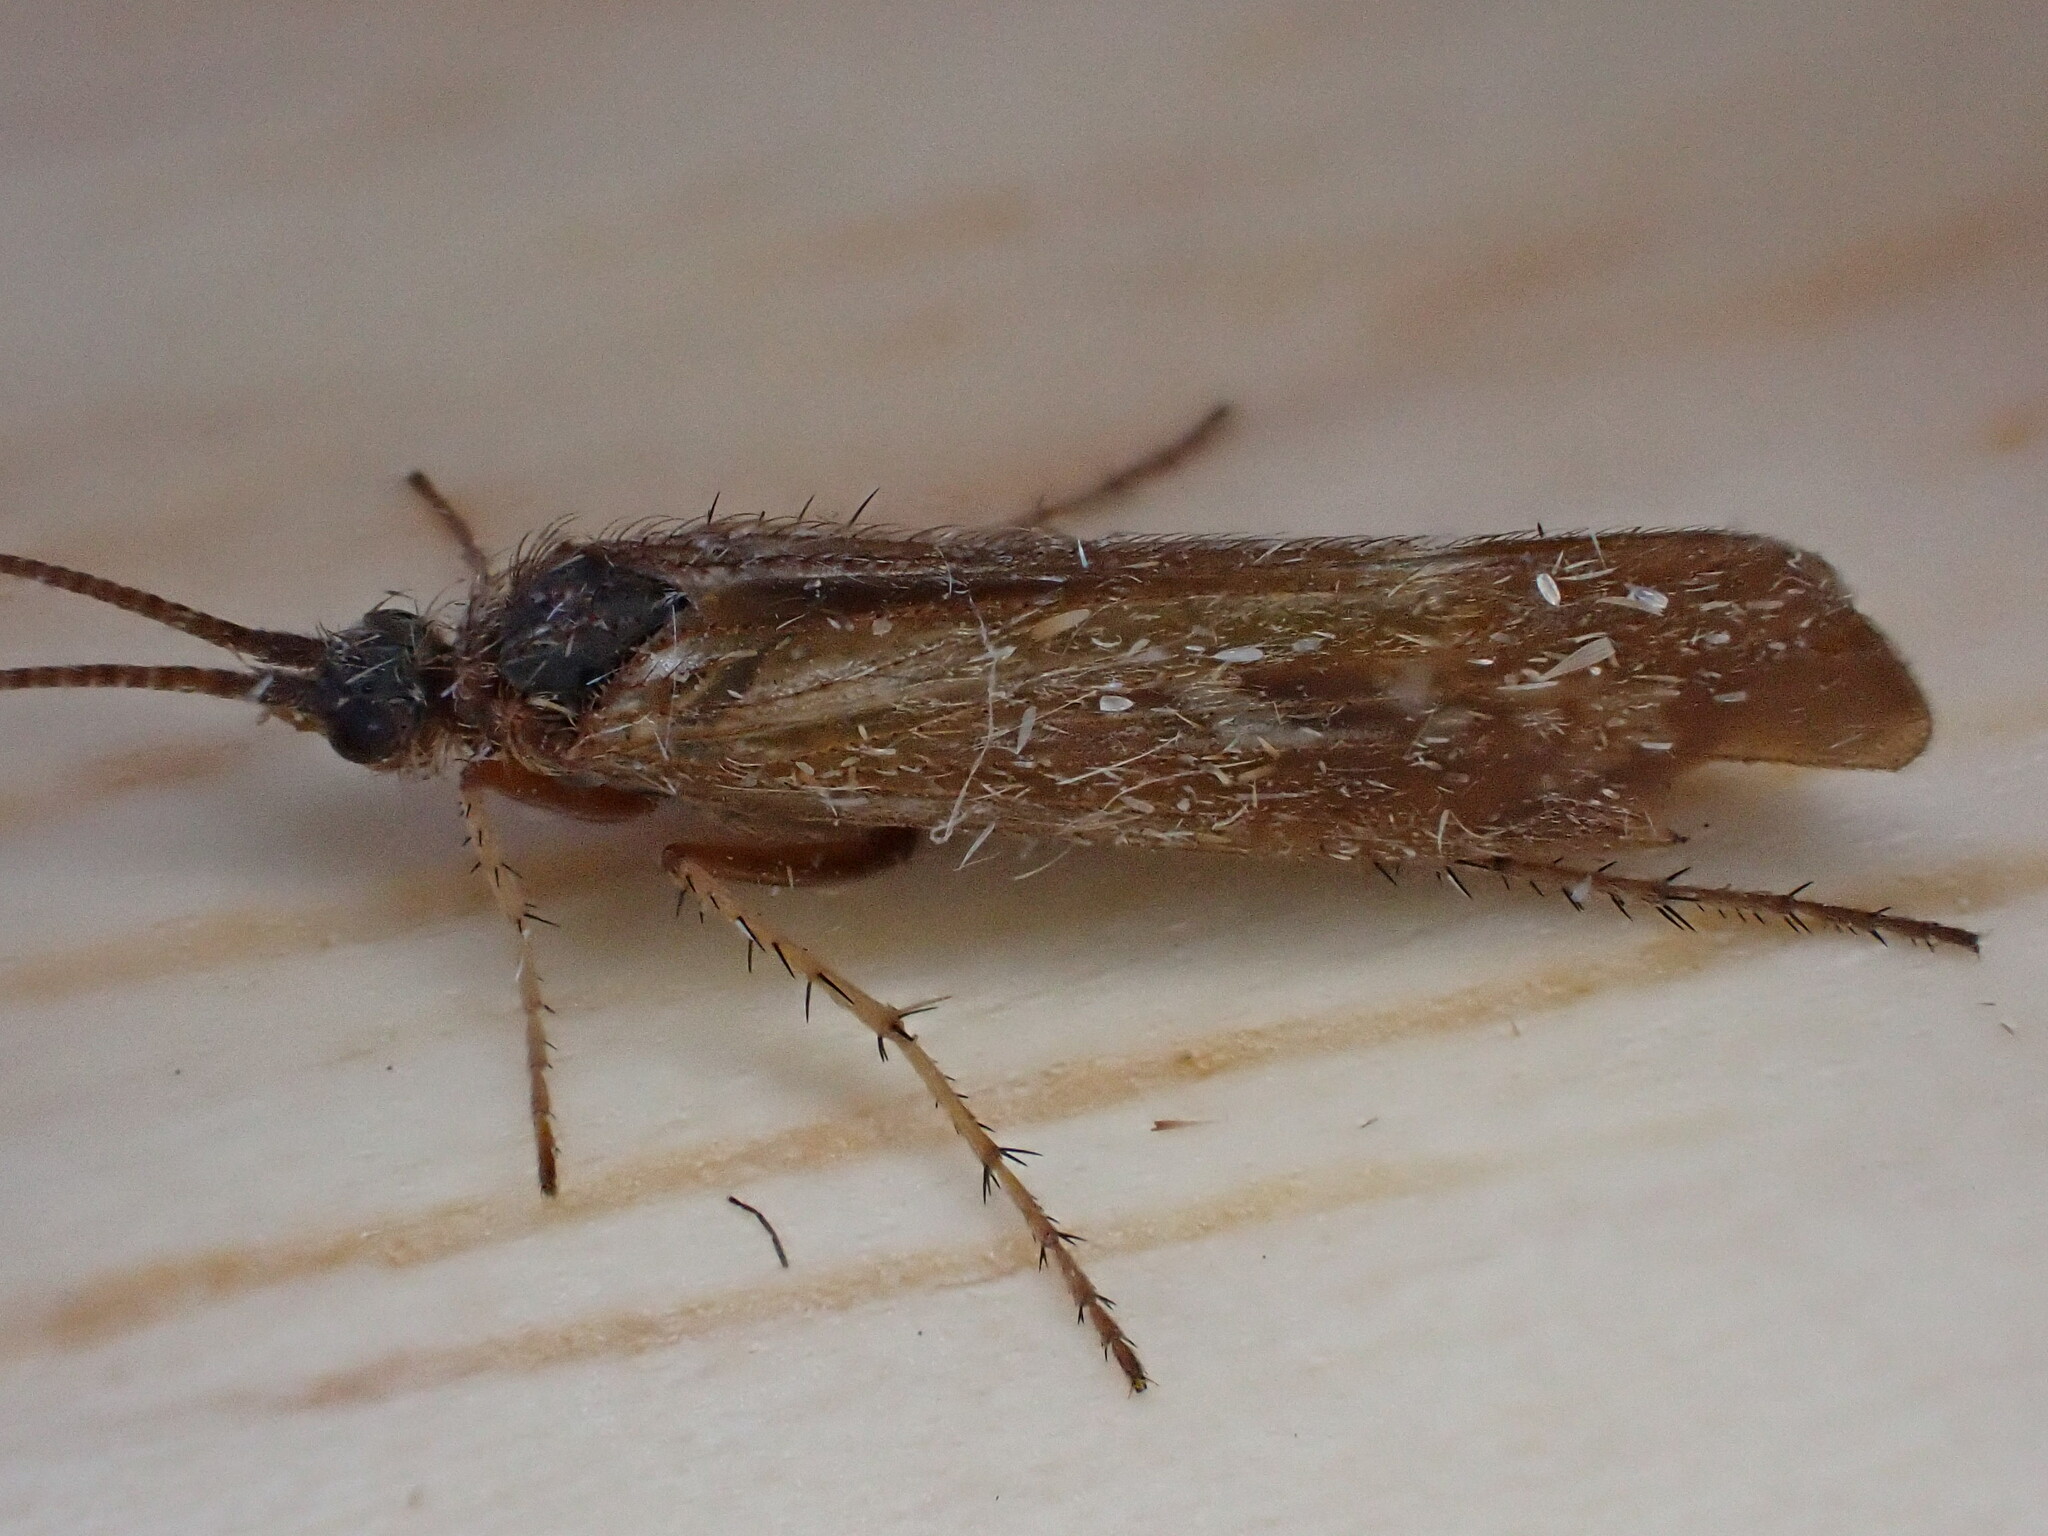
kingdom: Animalia
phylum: Arthropoda
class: Insecta
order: Trichoptera
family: Limnephilidae
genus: Limnephilus
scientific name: Limnephilus auricula
